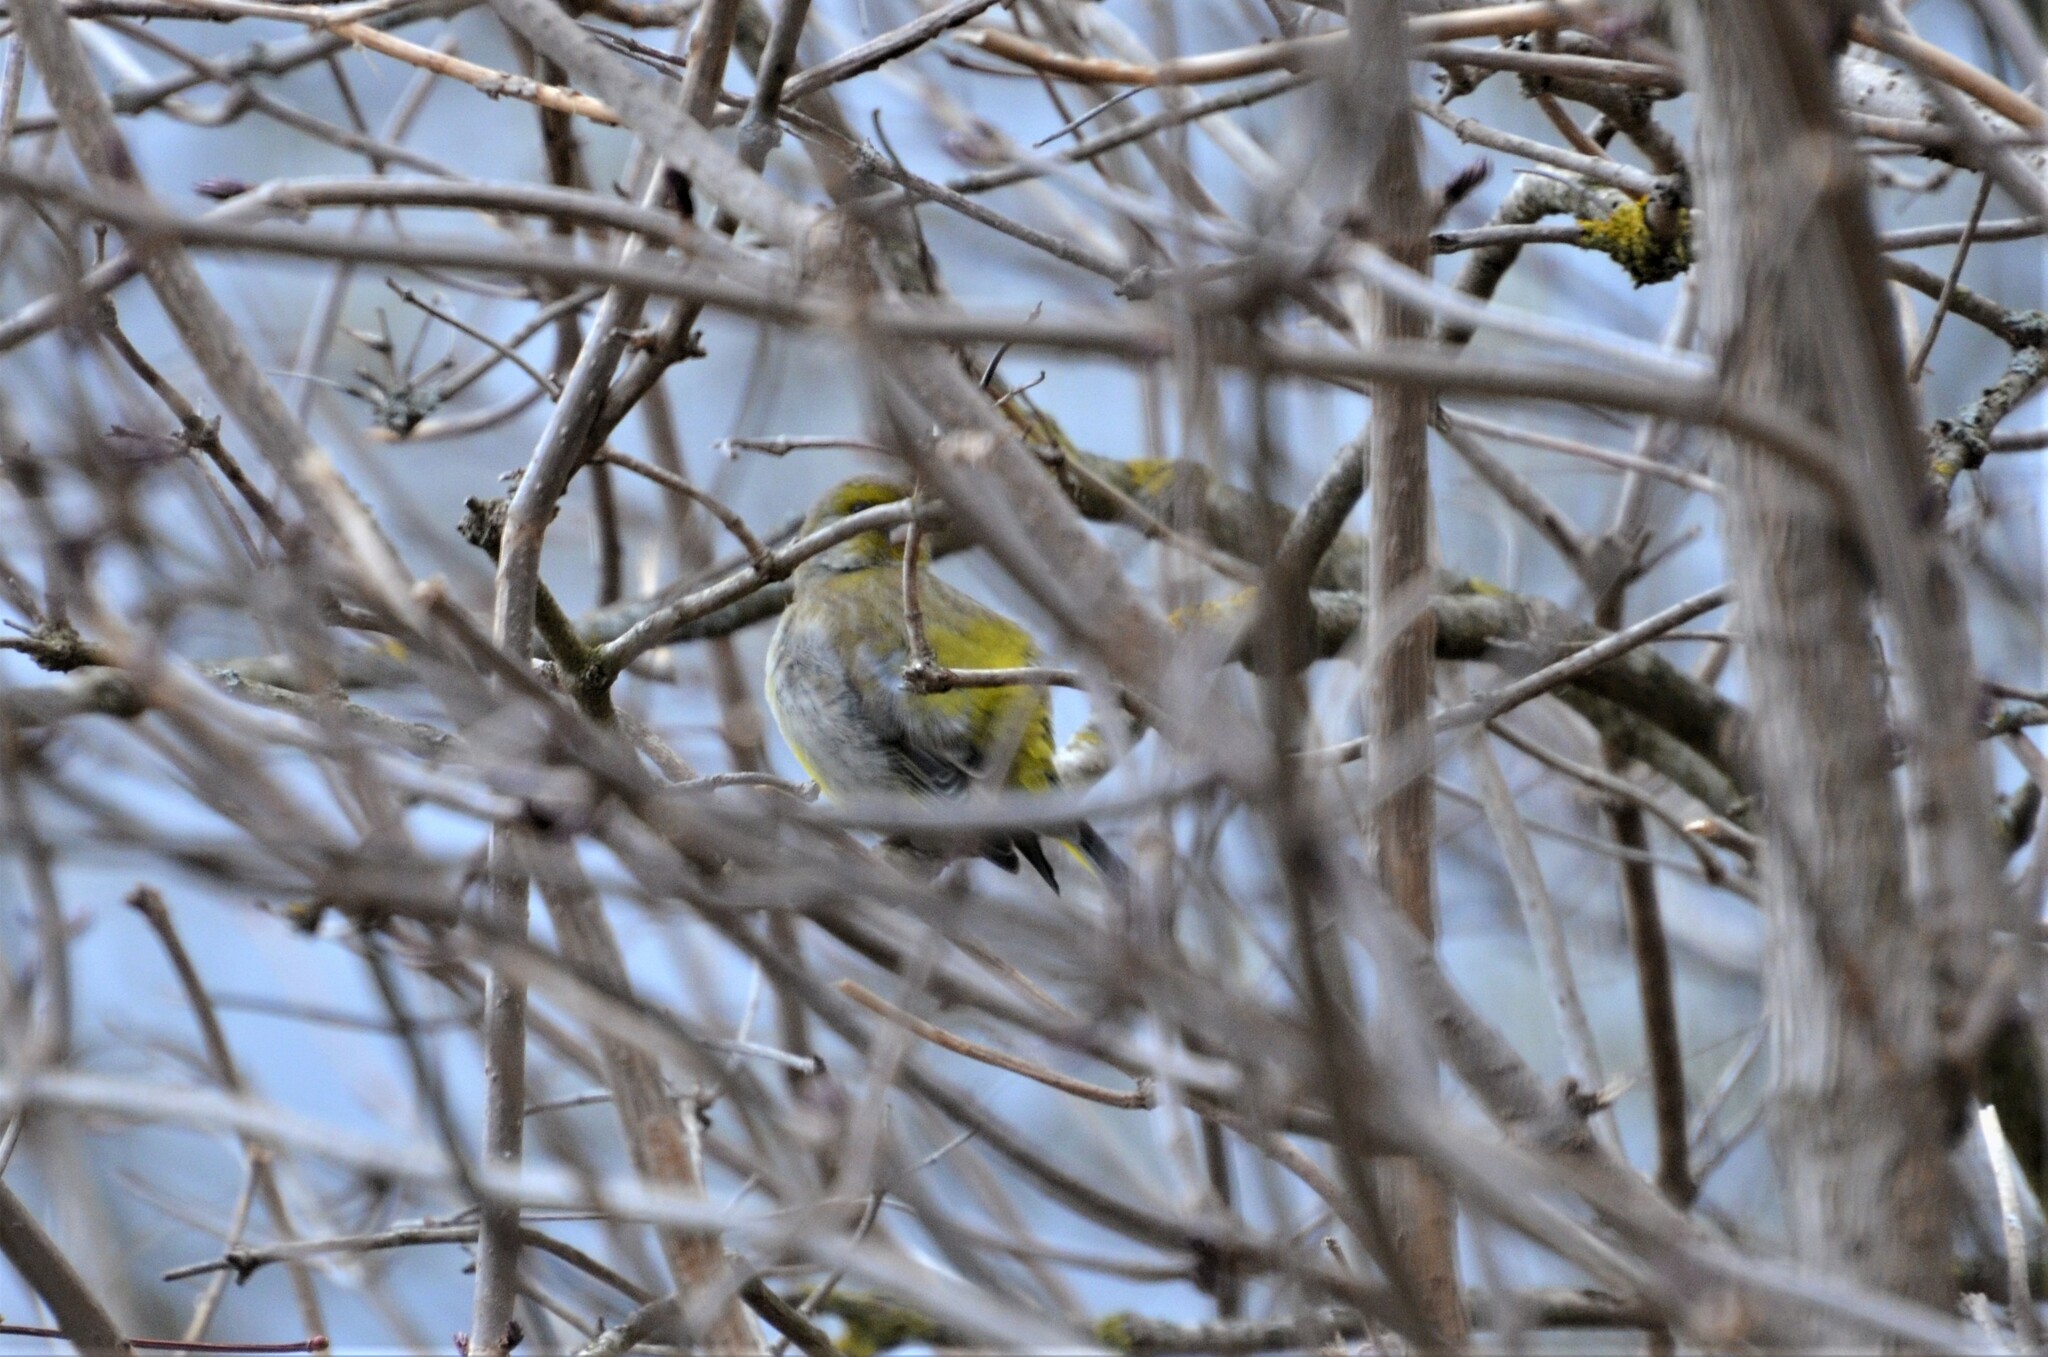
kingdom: Plantae
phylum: Tracheophyta
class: Liliopsida
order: Poales
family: Poaceae
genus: Chloris
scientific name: Chloris chloris
